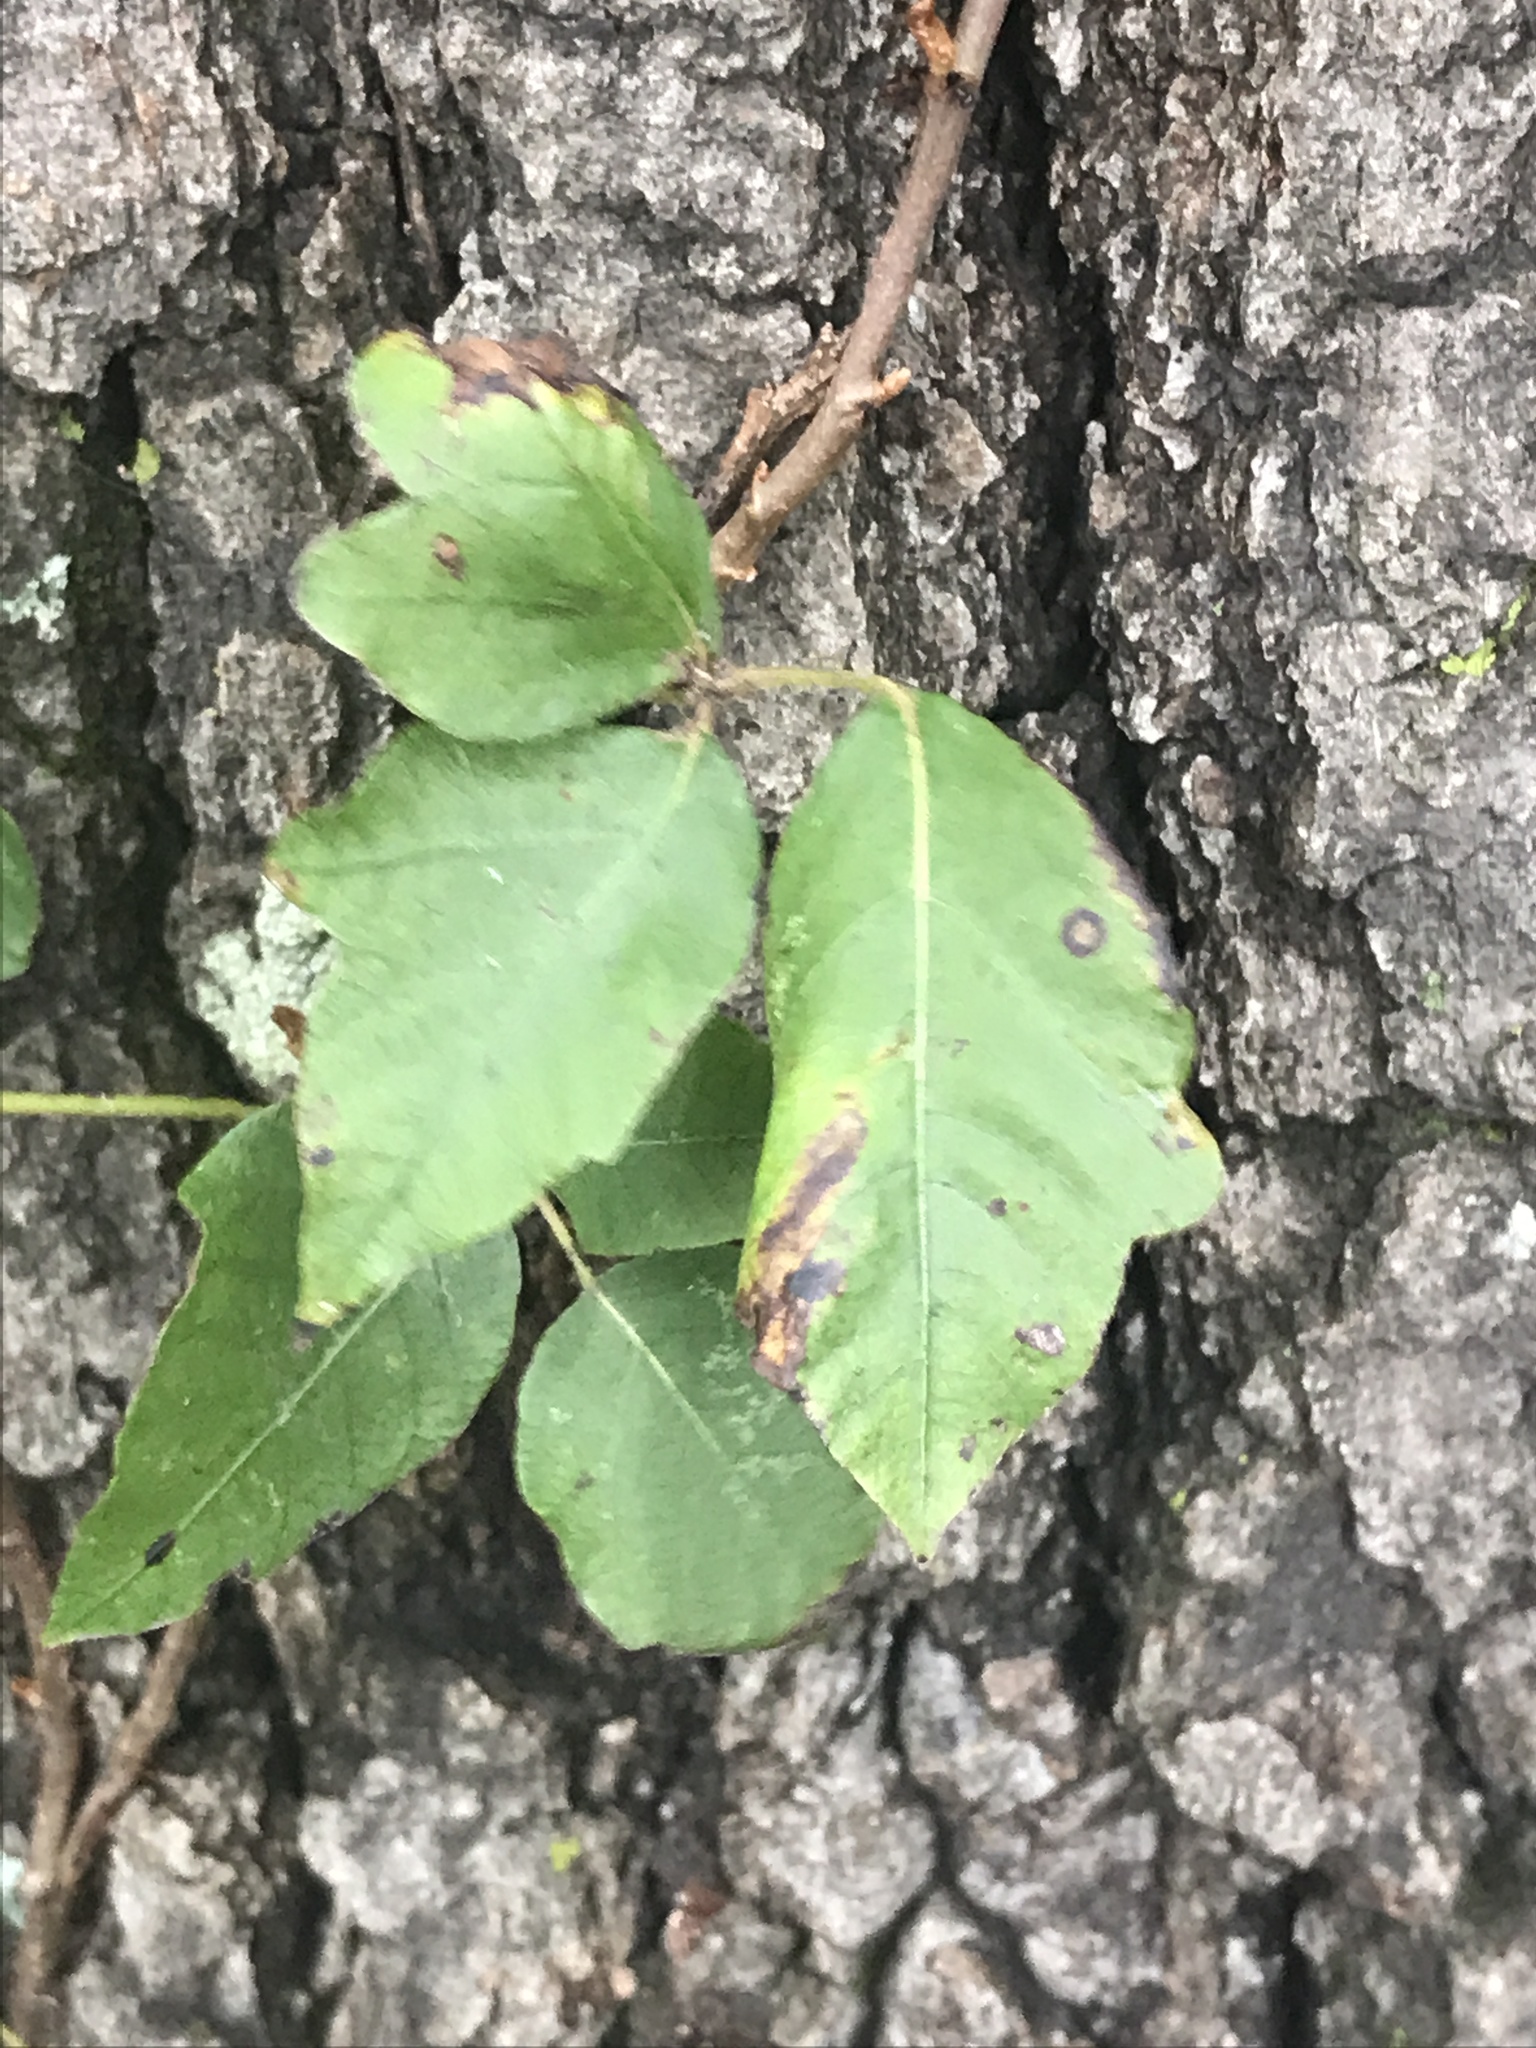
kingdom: Plantae
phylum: Tracheophyta
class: Magnoliopsida
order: Sapindales
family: Anacardiaceae
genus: Toxicodendron
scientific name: Toxicodendron radicans
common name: Poison ivy
